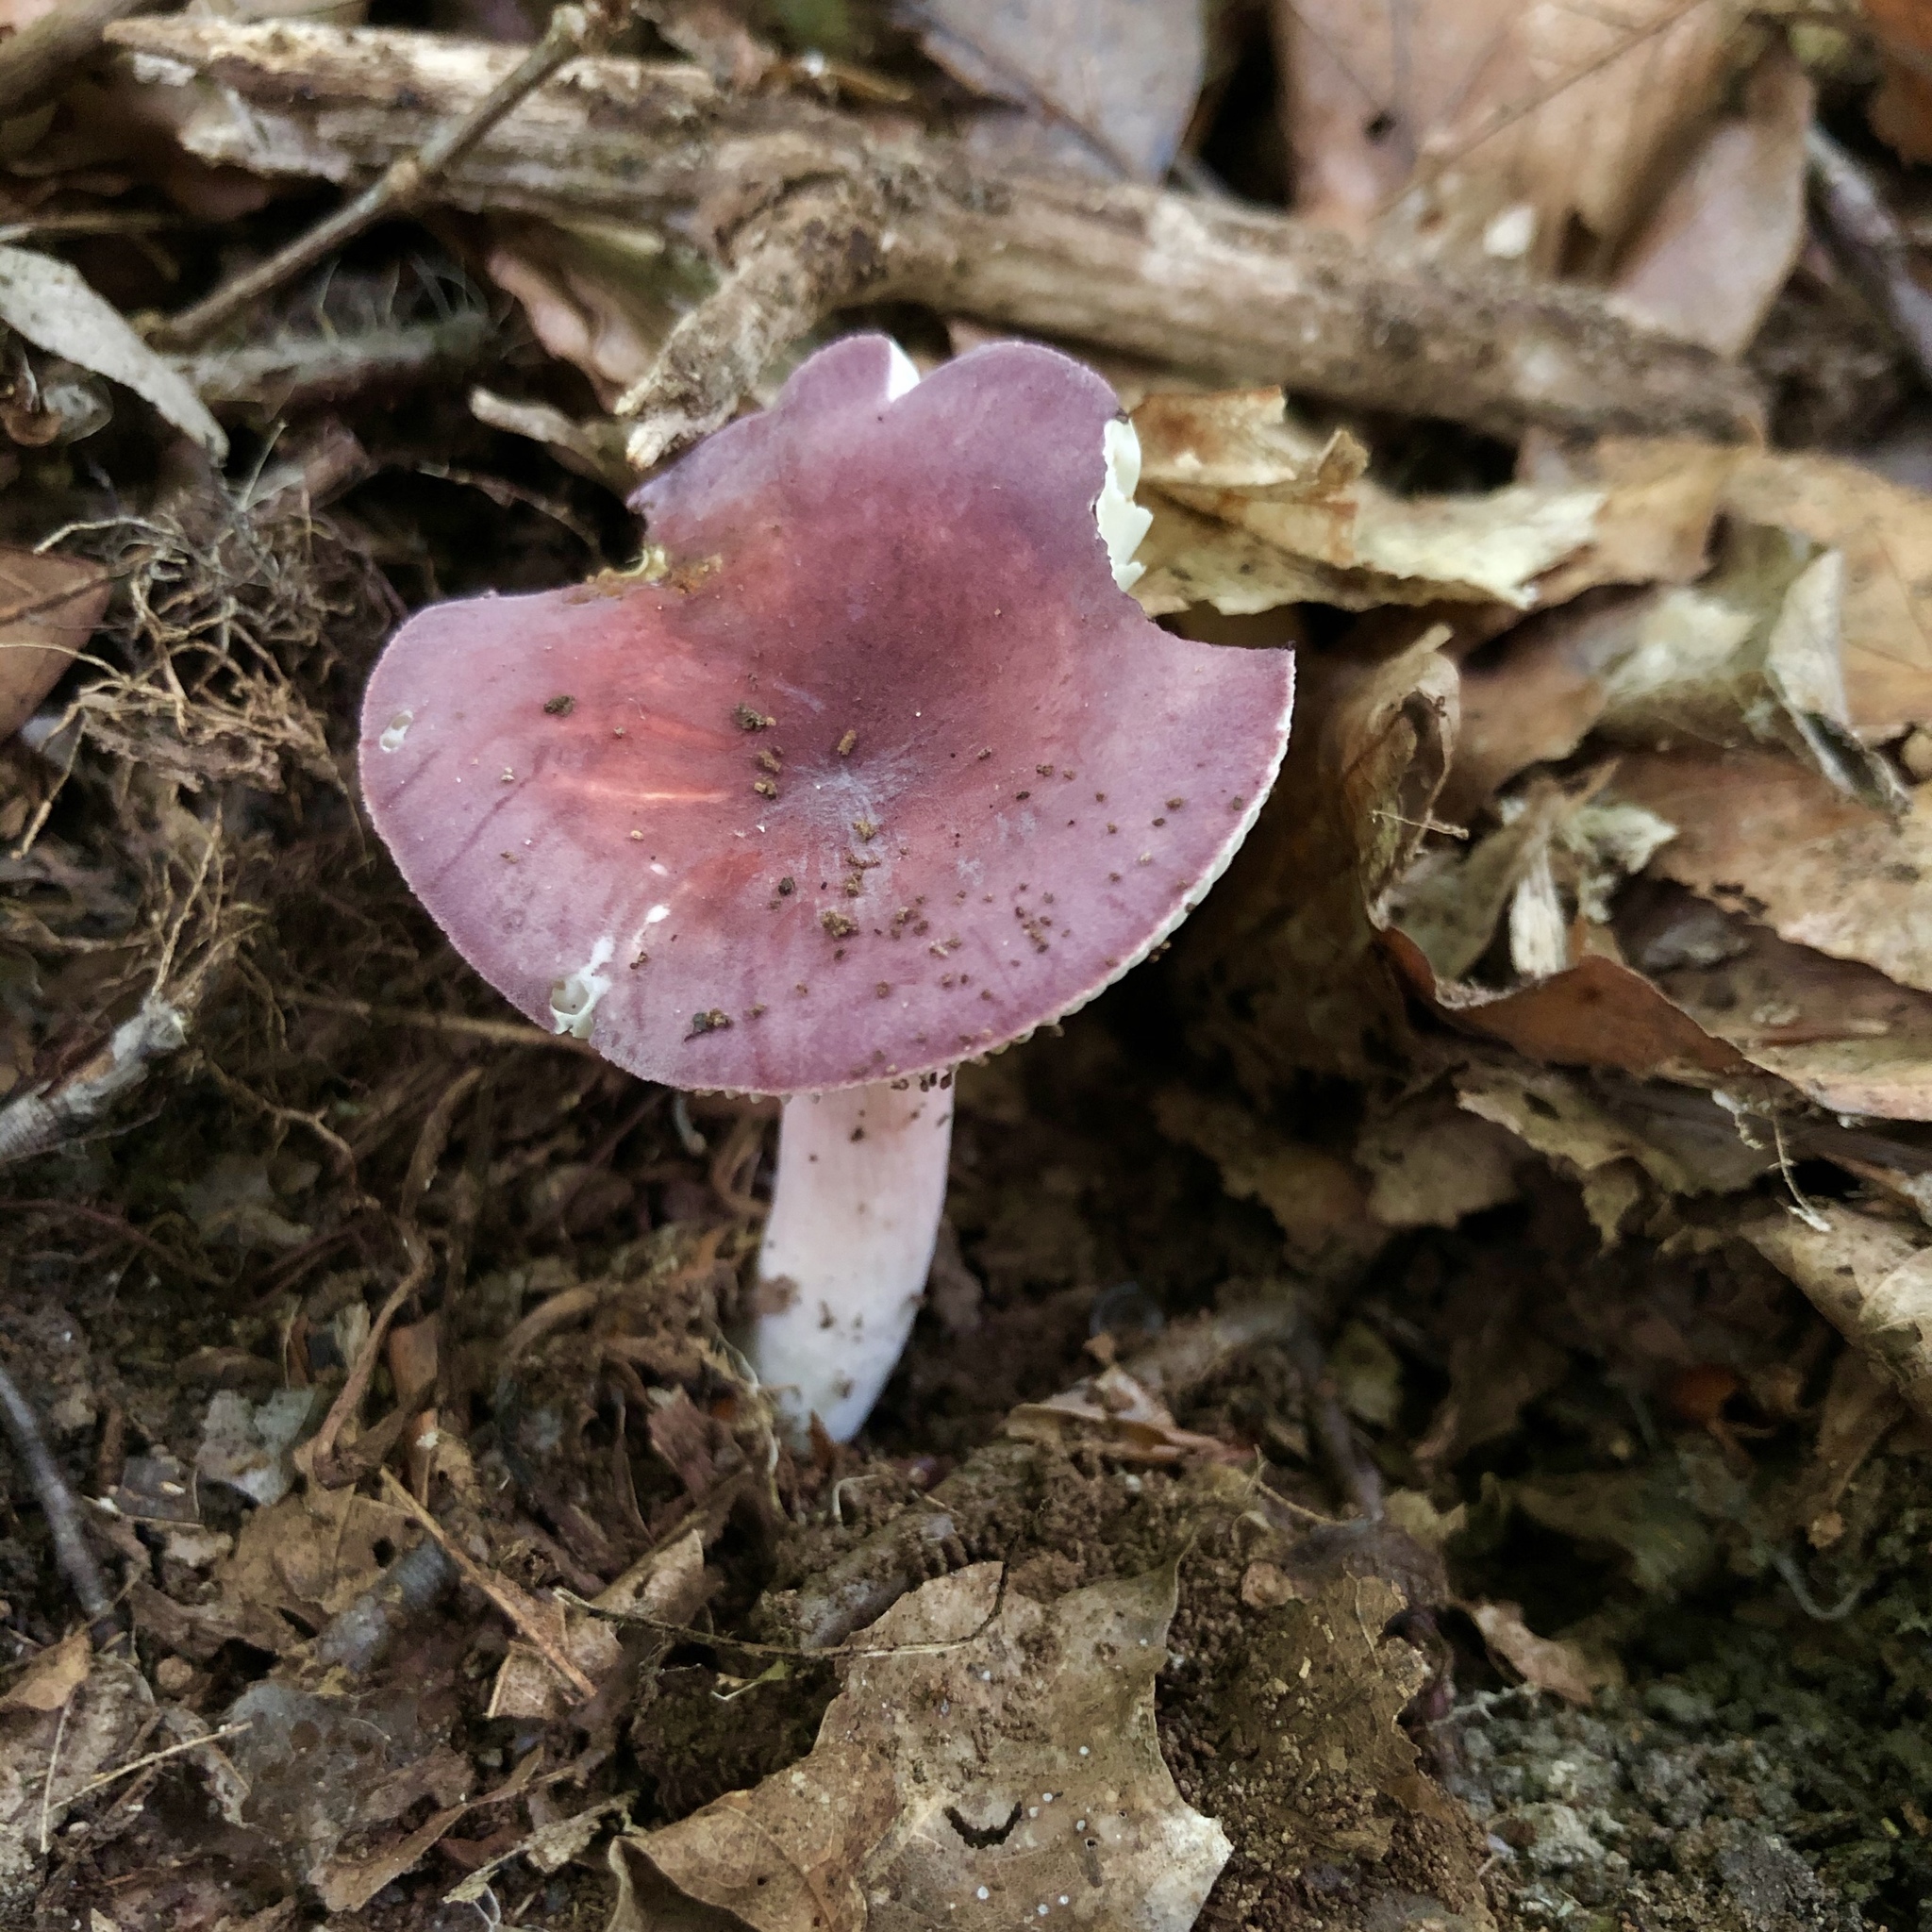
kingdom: Fungi
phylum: Basidiomycota
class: Agaricomycetes
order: Russulales
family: Russulaceae
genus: Russula
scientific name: Russula xerampelina
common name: Crab brittlegill
